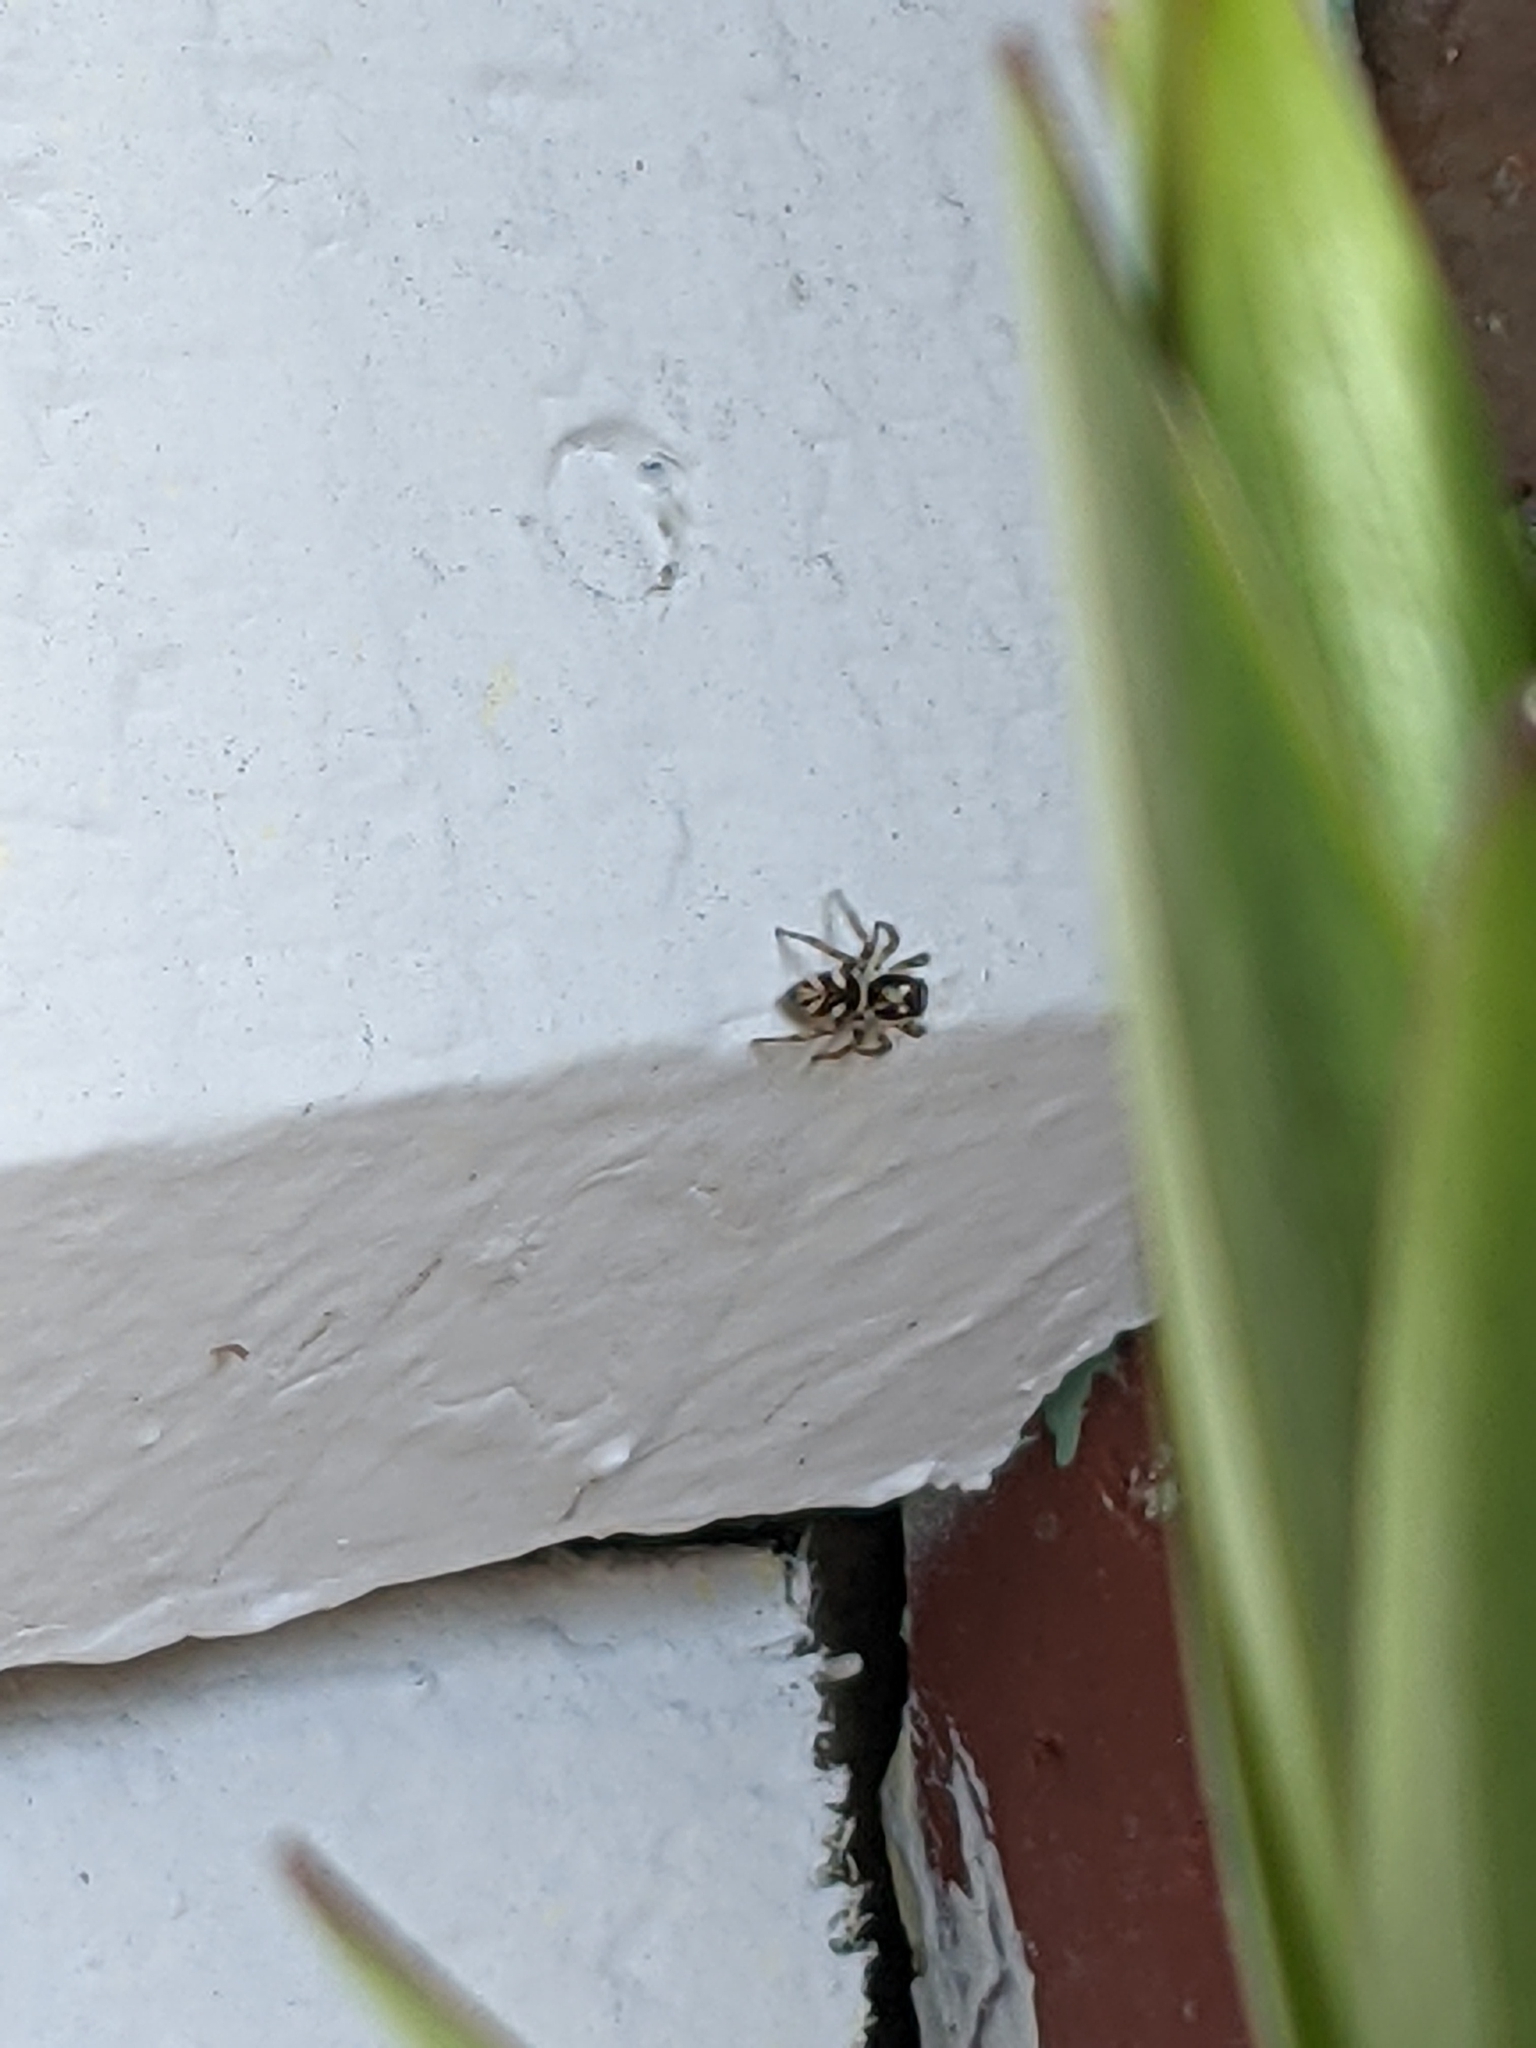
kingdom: Animalia
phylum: Arthropoda
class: Arachnida
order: Araneae
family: Salticidae
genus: Salticus
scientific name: Salticus scenicus
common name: Zebra jumper
